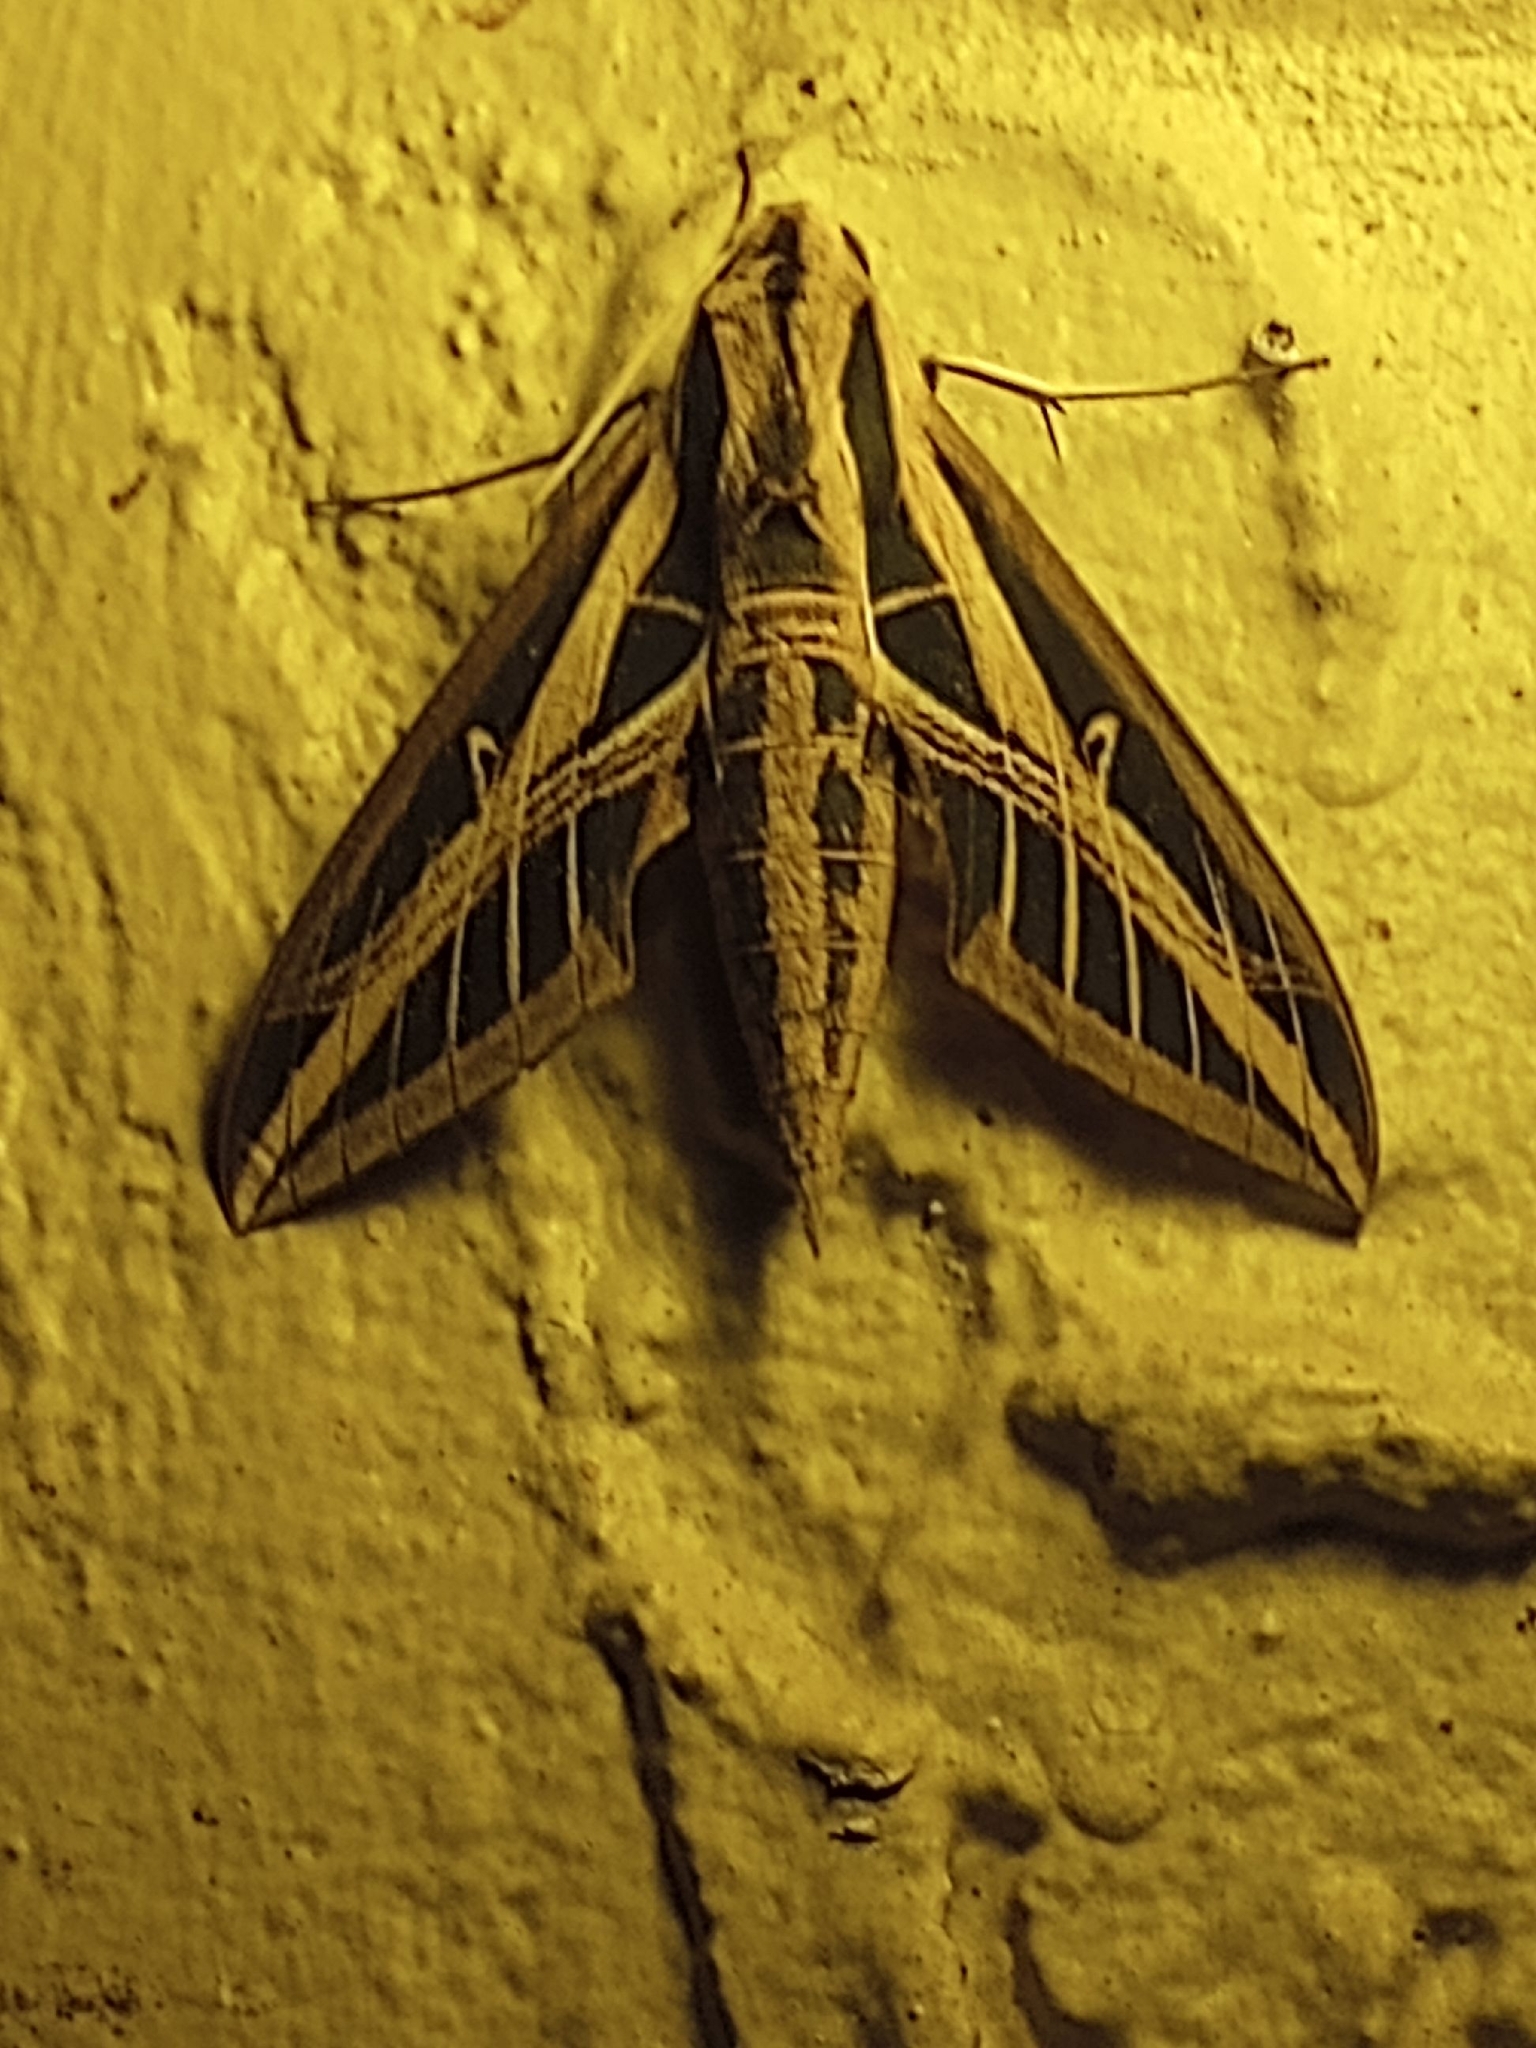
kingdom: Animalia
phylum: Arthropoda
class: Insecta
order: Lepidoptera
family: Sphingidae
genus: Eumorpha
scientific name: Eumorpha fasciatus
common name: Banded sphinx
